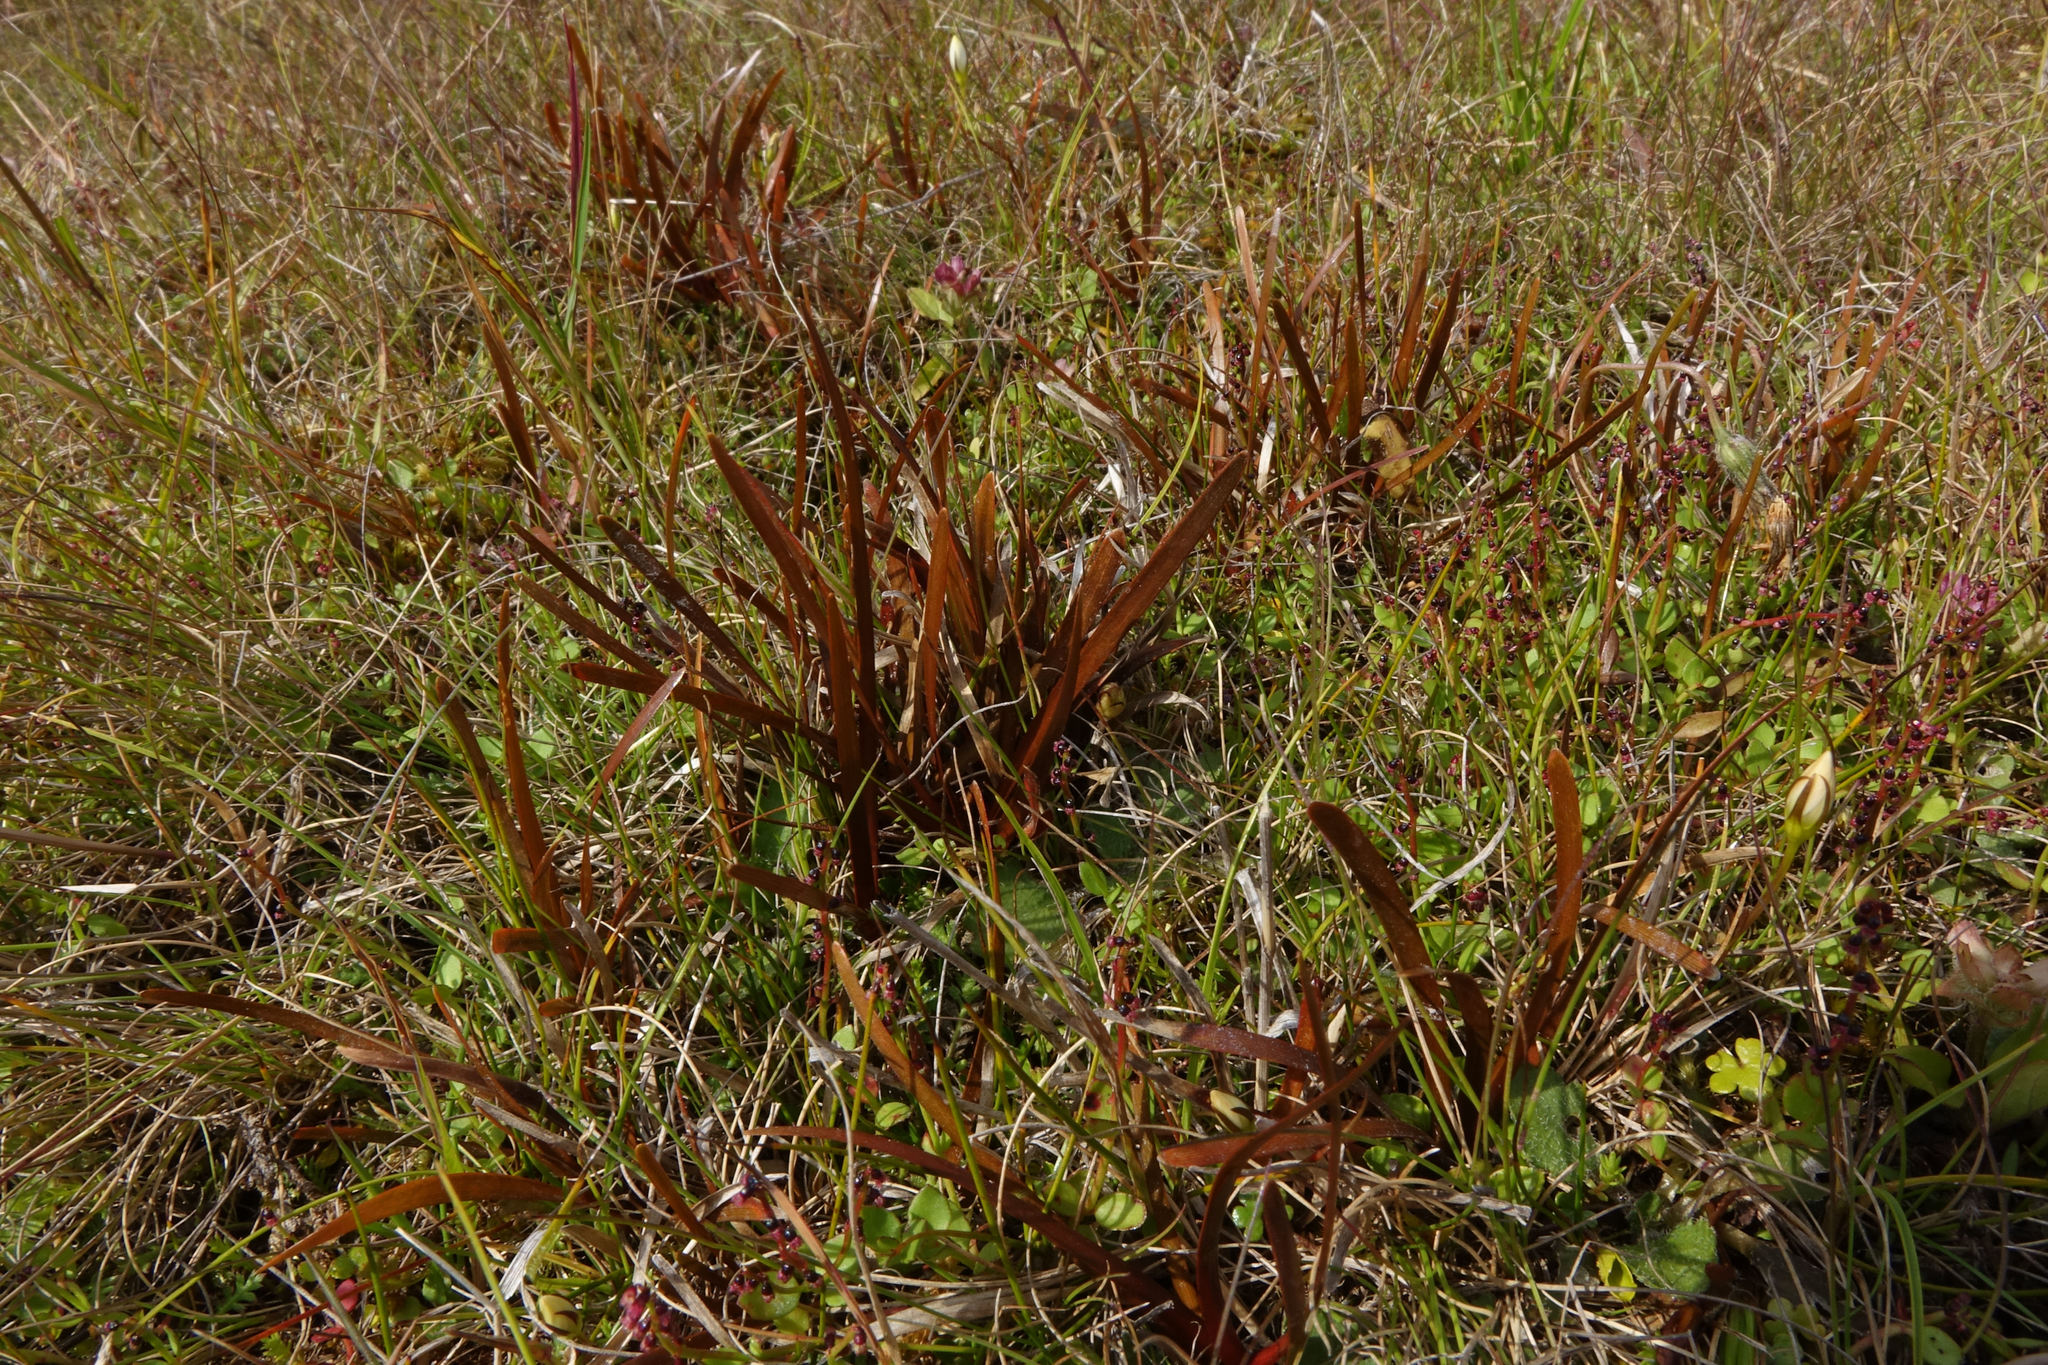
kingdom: Plantae
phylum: Tracheophyta
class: Liliopsida
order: Poales
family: Cyperaceae
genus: Carex
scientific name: Carex talbotii
